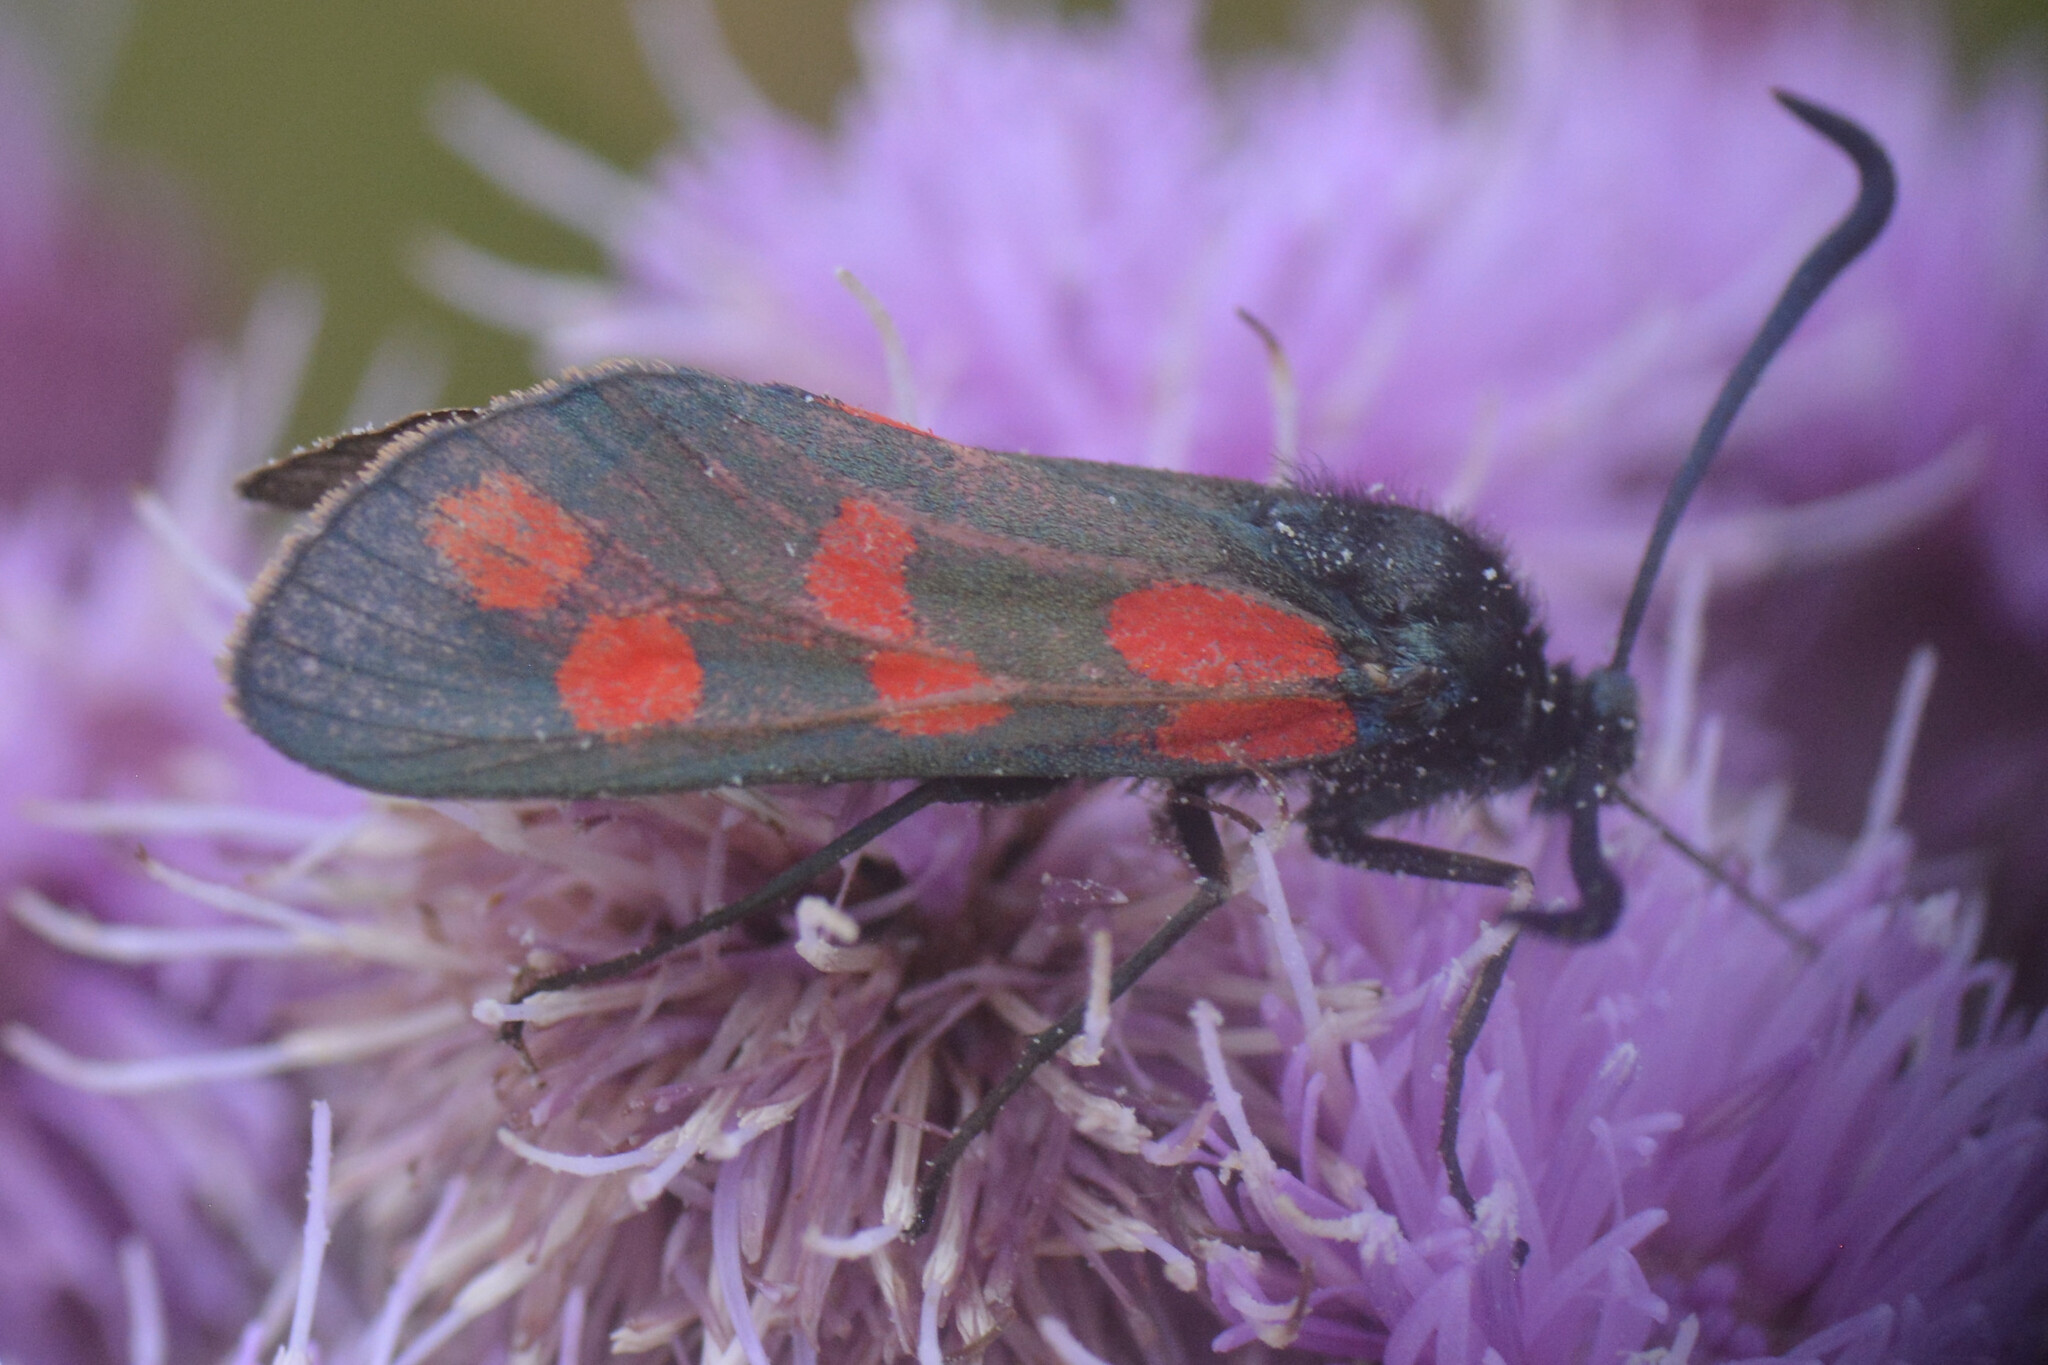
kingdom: Animalia
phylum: Arthropoda
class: Insecta
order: Lepidoptera
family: Zygaenidae
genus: Zygaena
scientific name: Zygaena filipendulae
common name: Six-spot burnet
